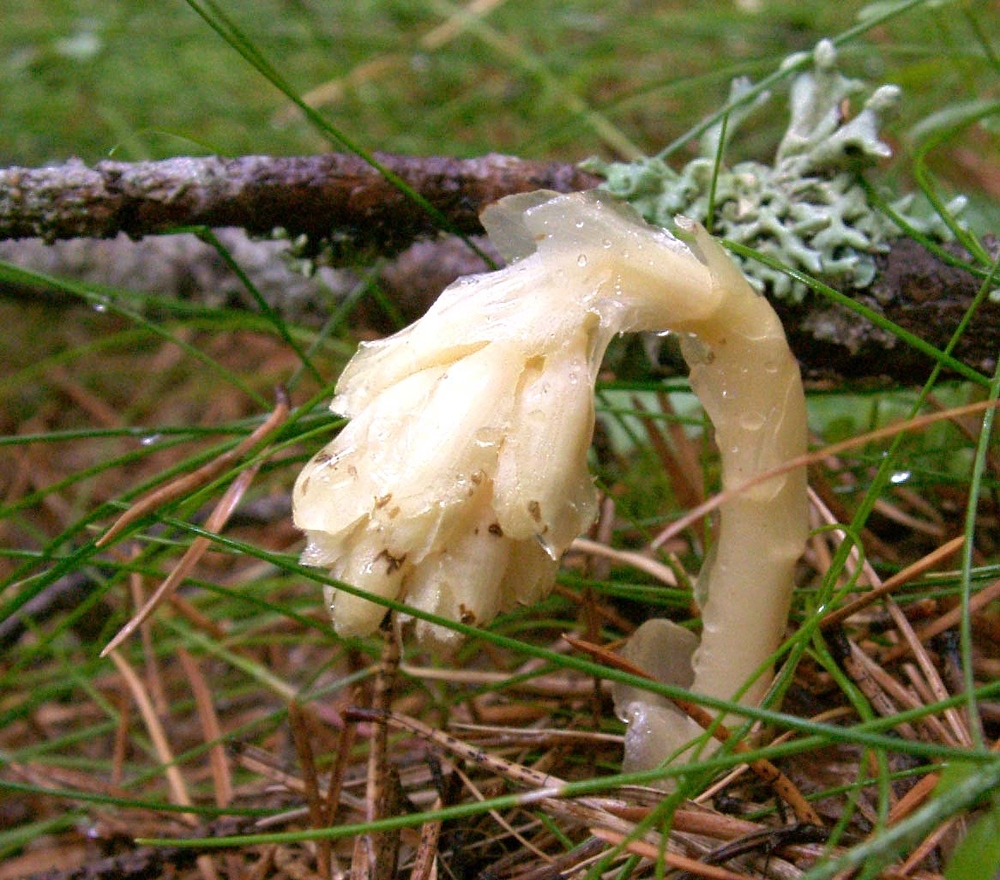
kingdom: Plantae
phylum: Tracheophyta
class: Magnoliopsida
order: Ericales
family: Ericaceae
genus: Hypopitys
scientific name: Hypopitys monotropa
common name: Yellow bird's-nest
